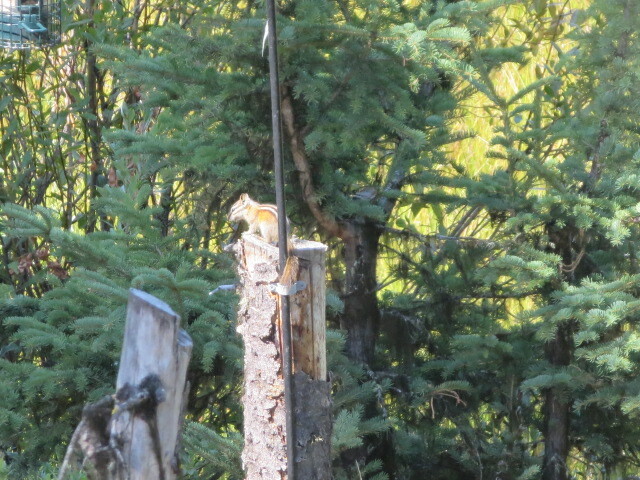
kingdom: Animalia
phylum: Chordata
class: Mammalia
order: Rodentia
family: Sciuridae
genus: Tamias
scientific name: Tamias amoenus
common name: Yellow-pine chipmunk
